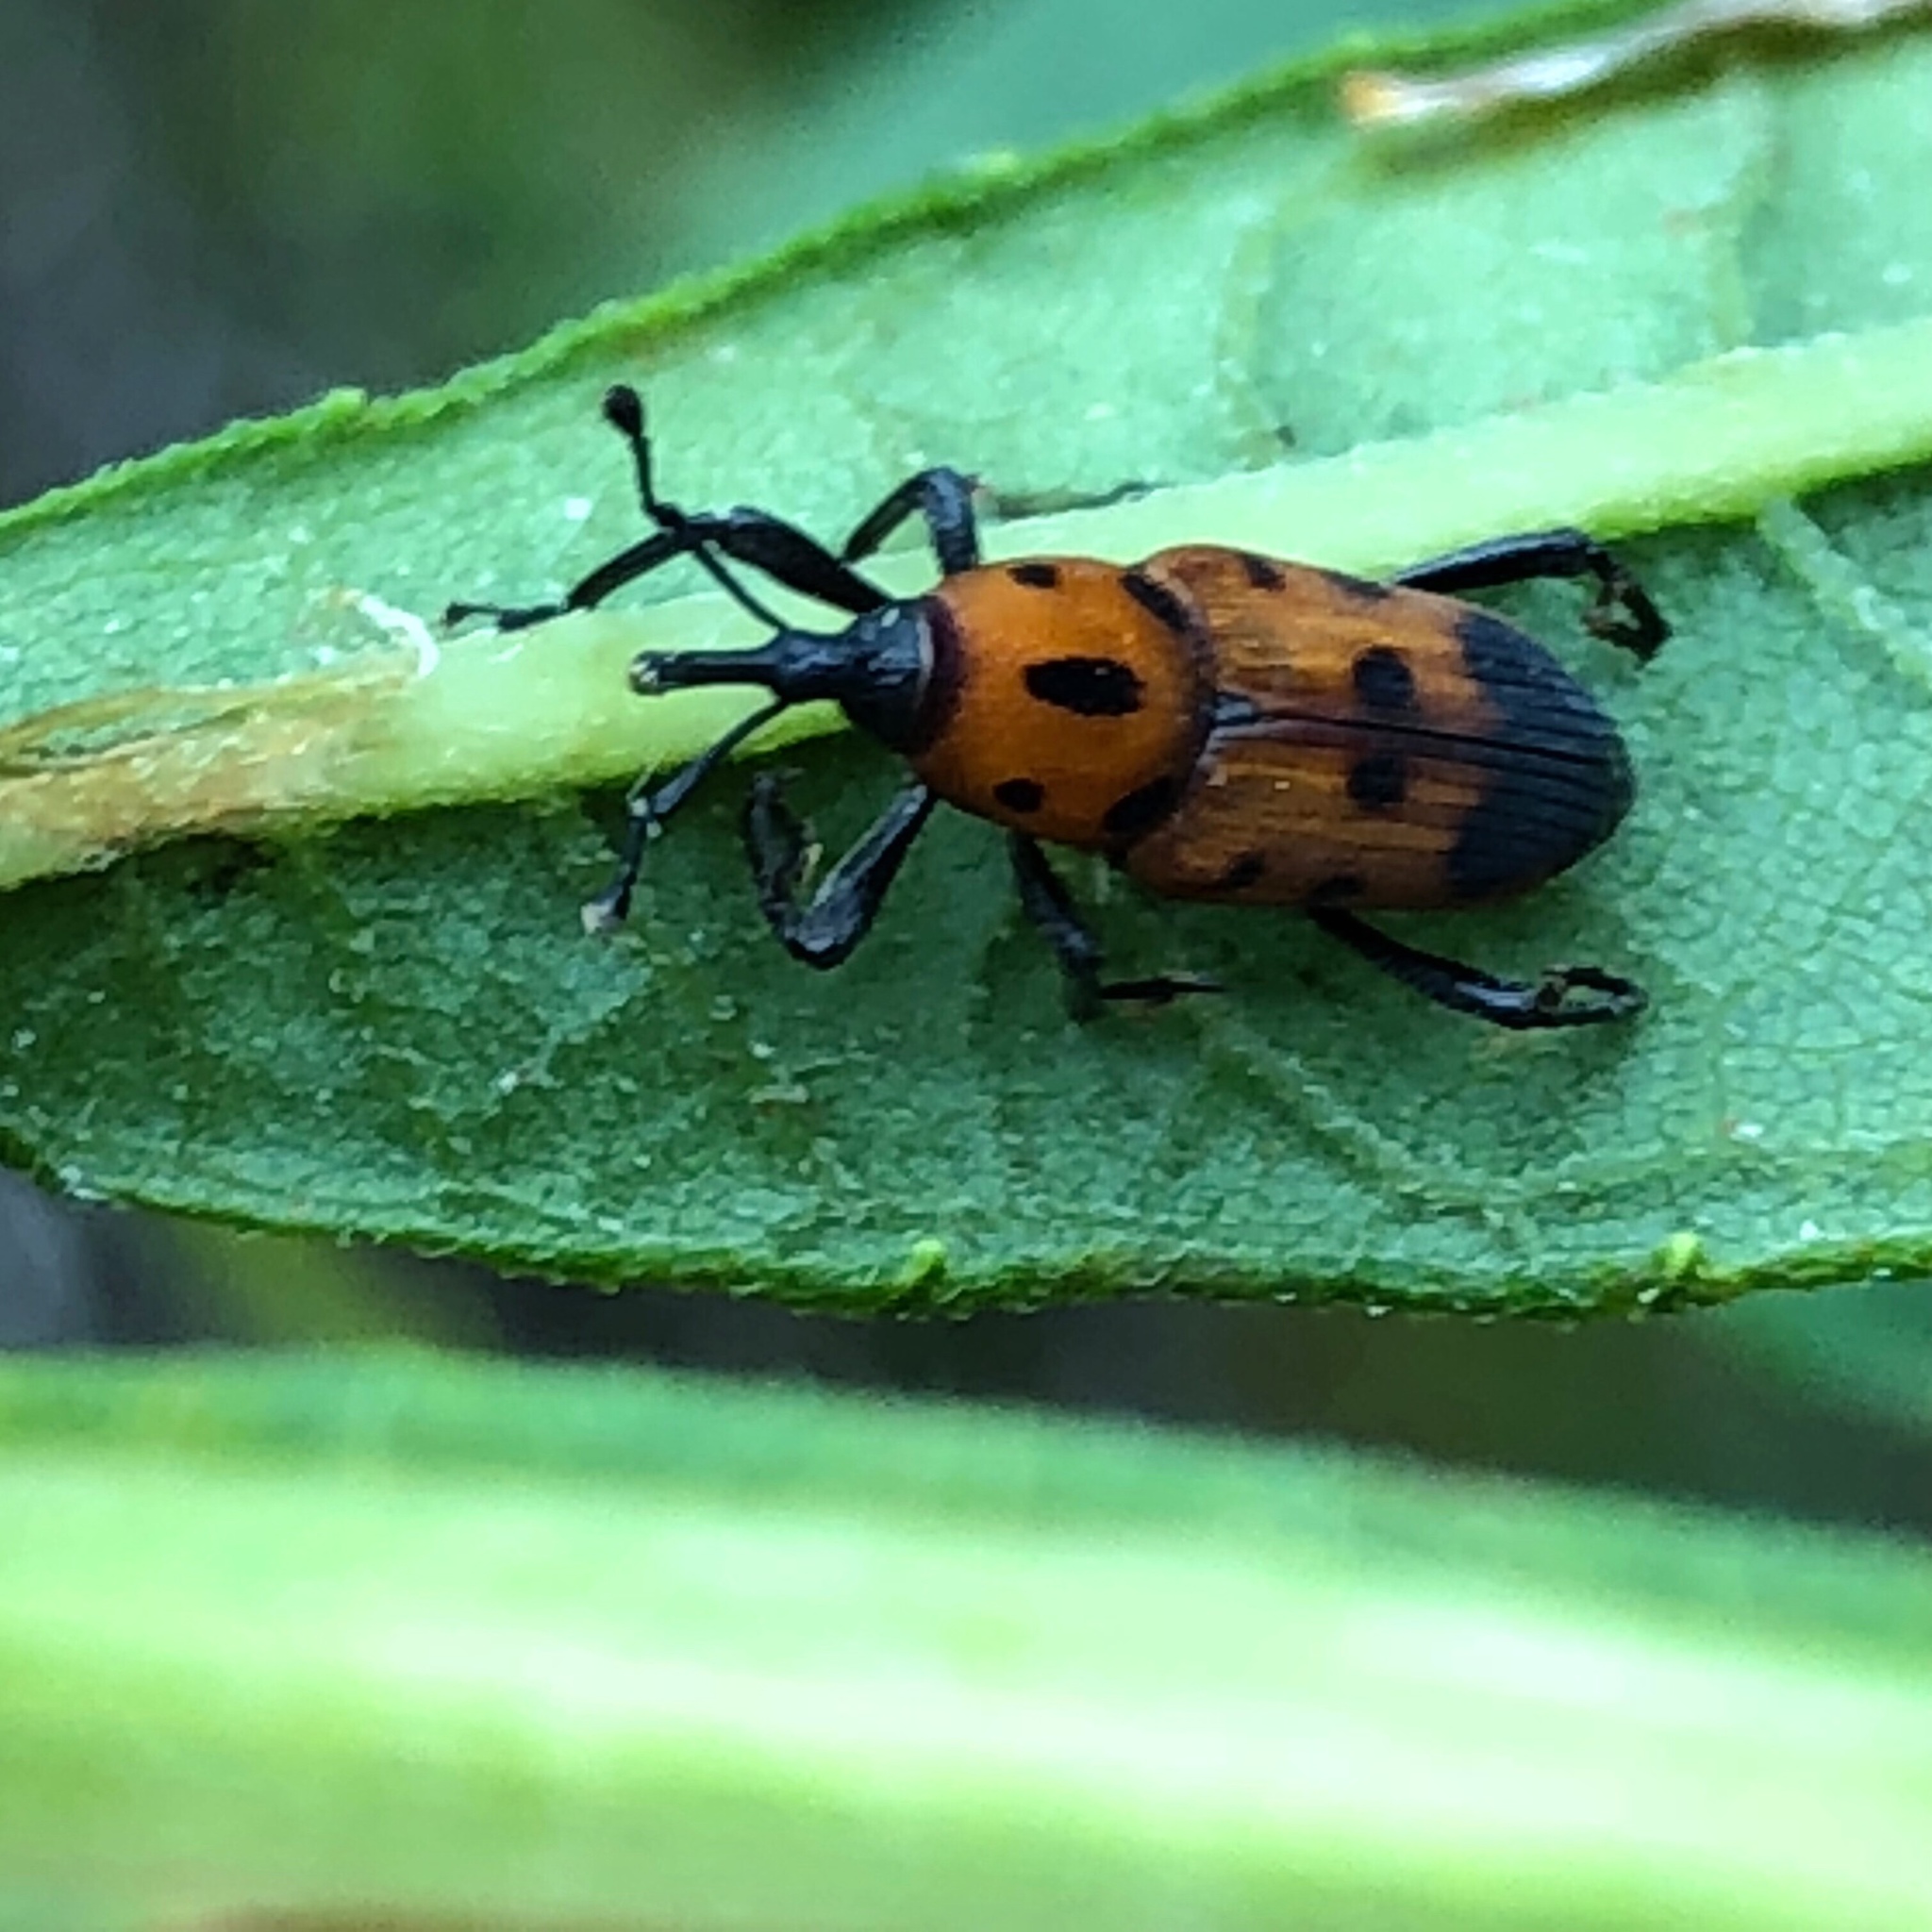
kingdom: Animalia
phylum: Arthropoda
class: Insecta
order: Coleoptera
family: Dryophthoridae
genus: Rhodobaenus
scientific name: Rhodobaenus quinquepunctatus
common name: Cocklebur weevil
